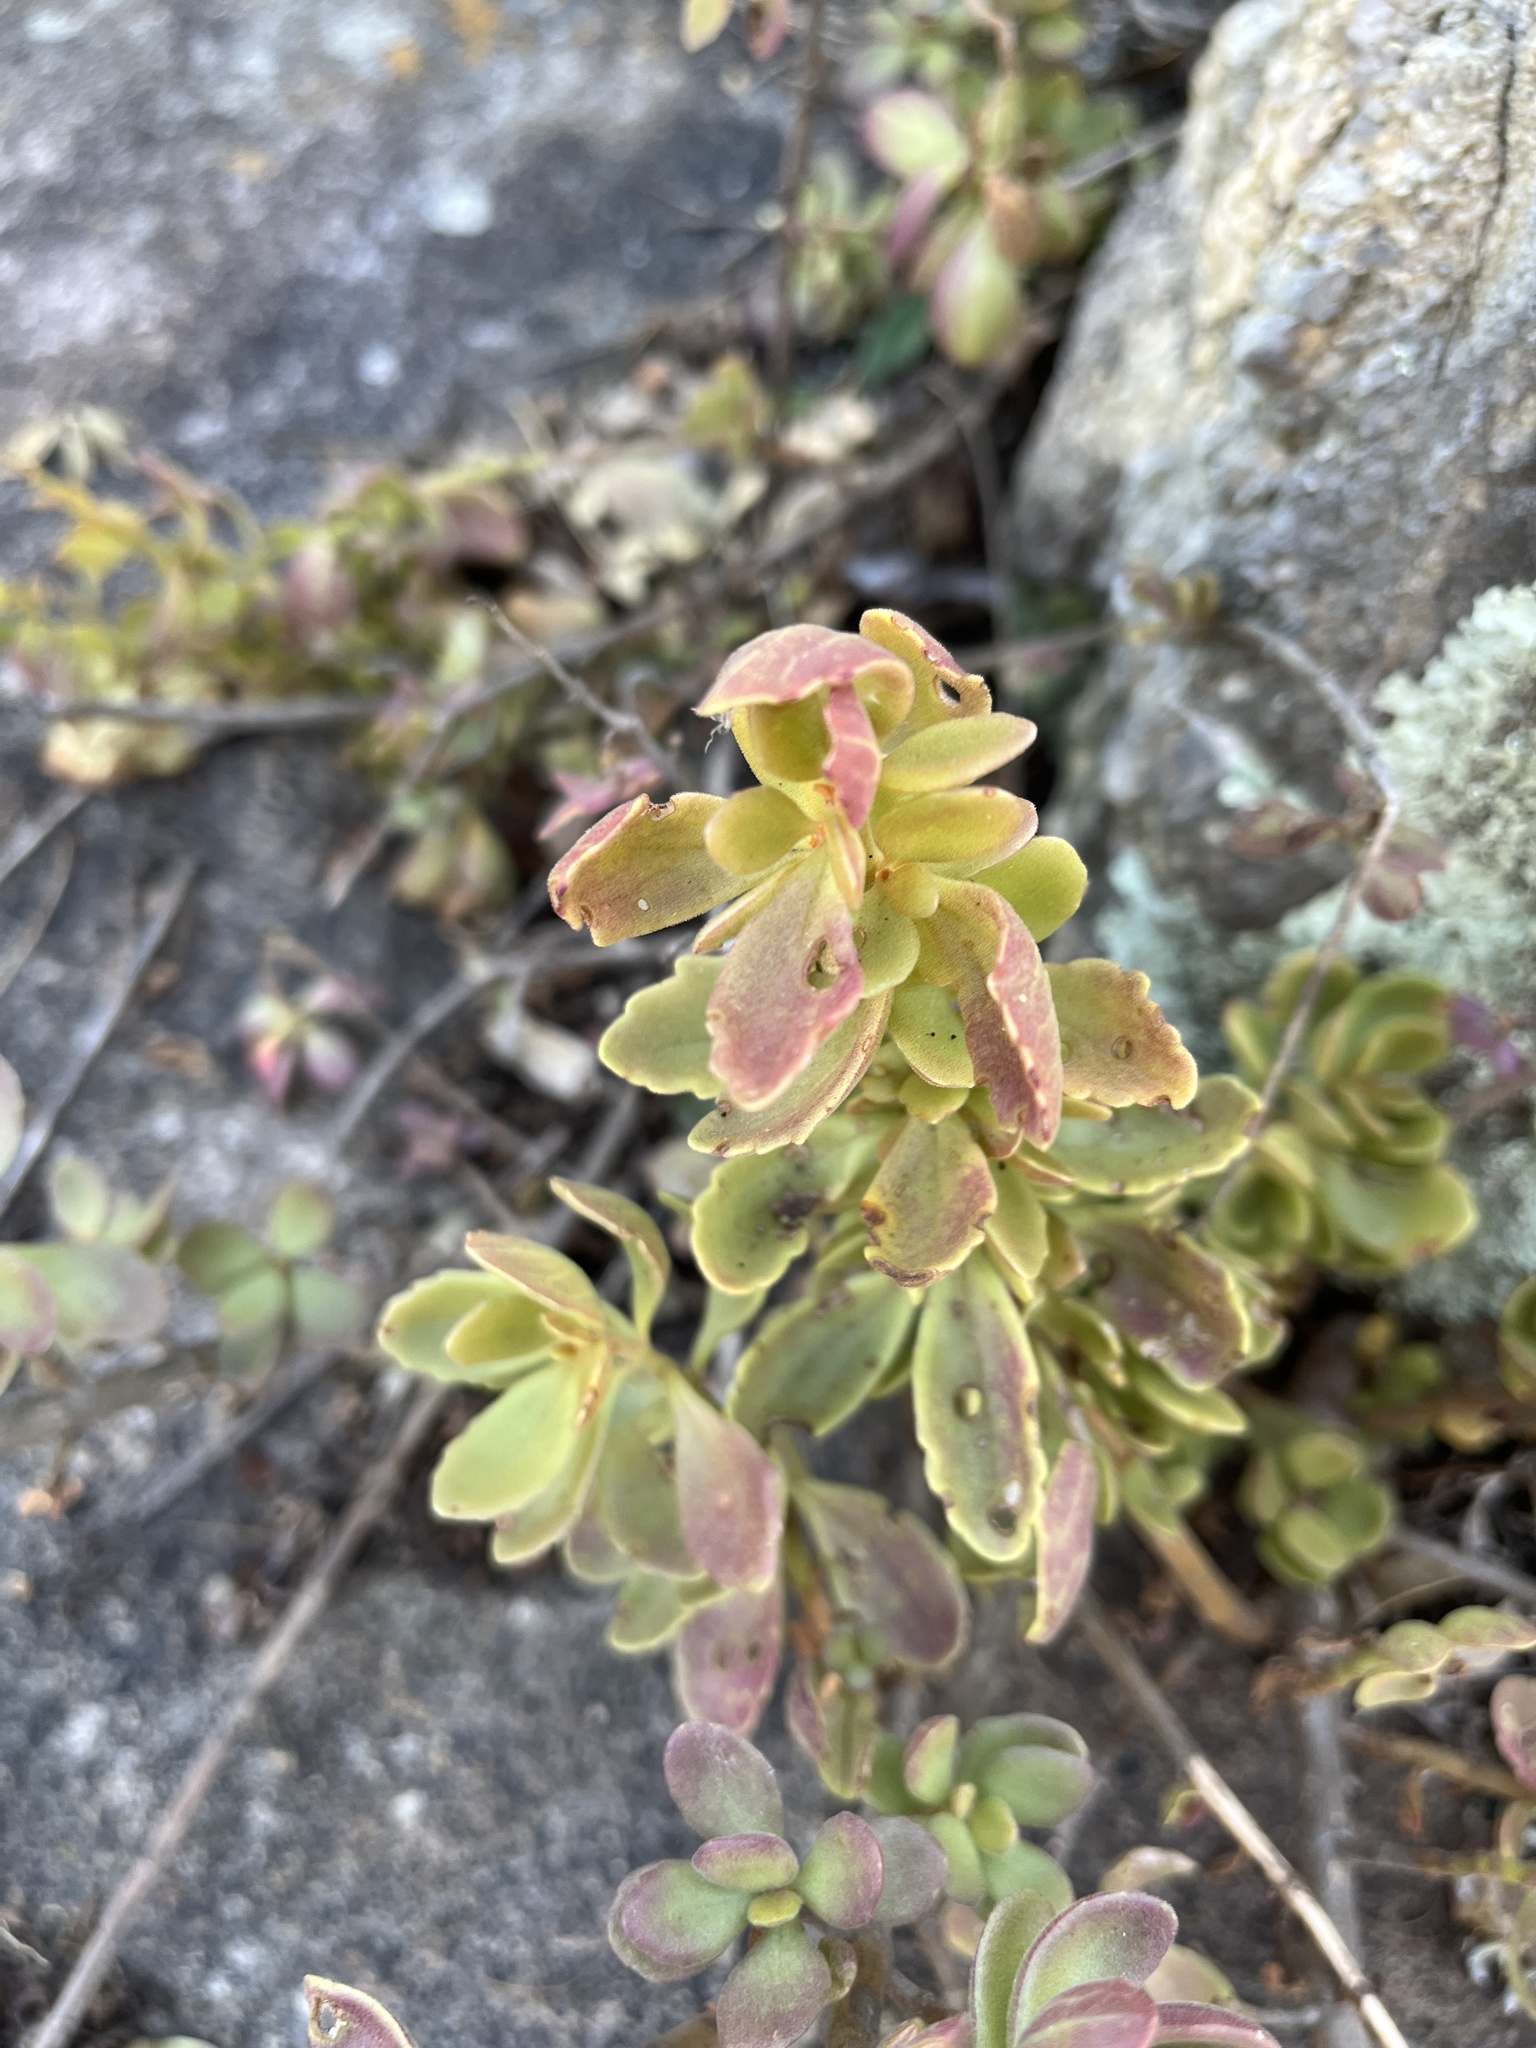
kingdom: Plantae
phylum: Tracheophyta
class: Magnoliopsida
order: Lamiales
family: Lamiaceae
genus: Coleus
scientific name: Coleus subspicatus
